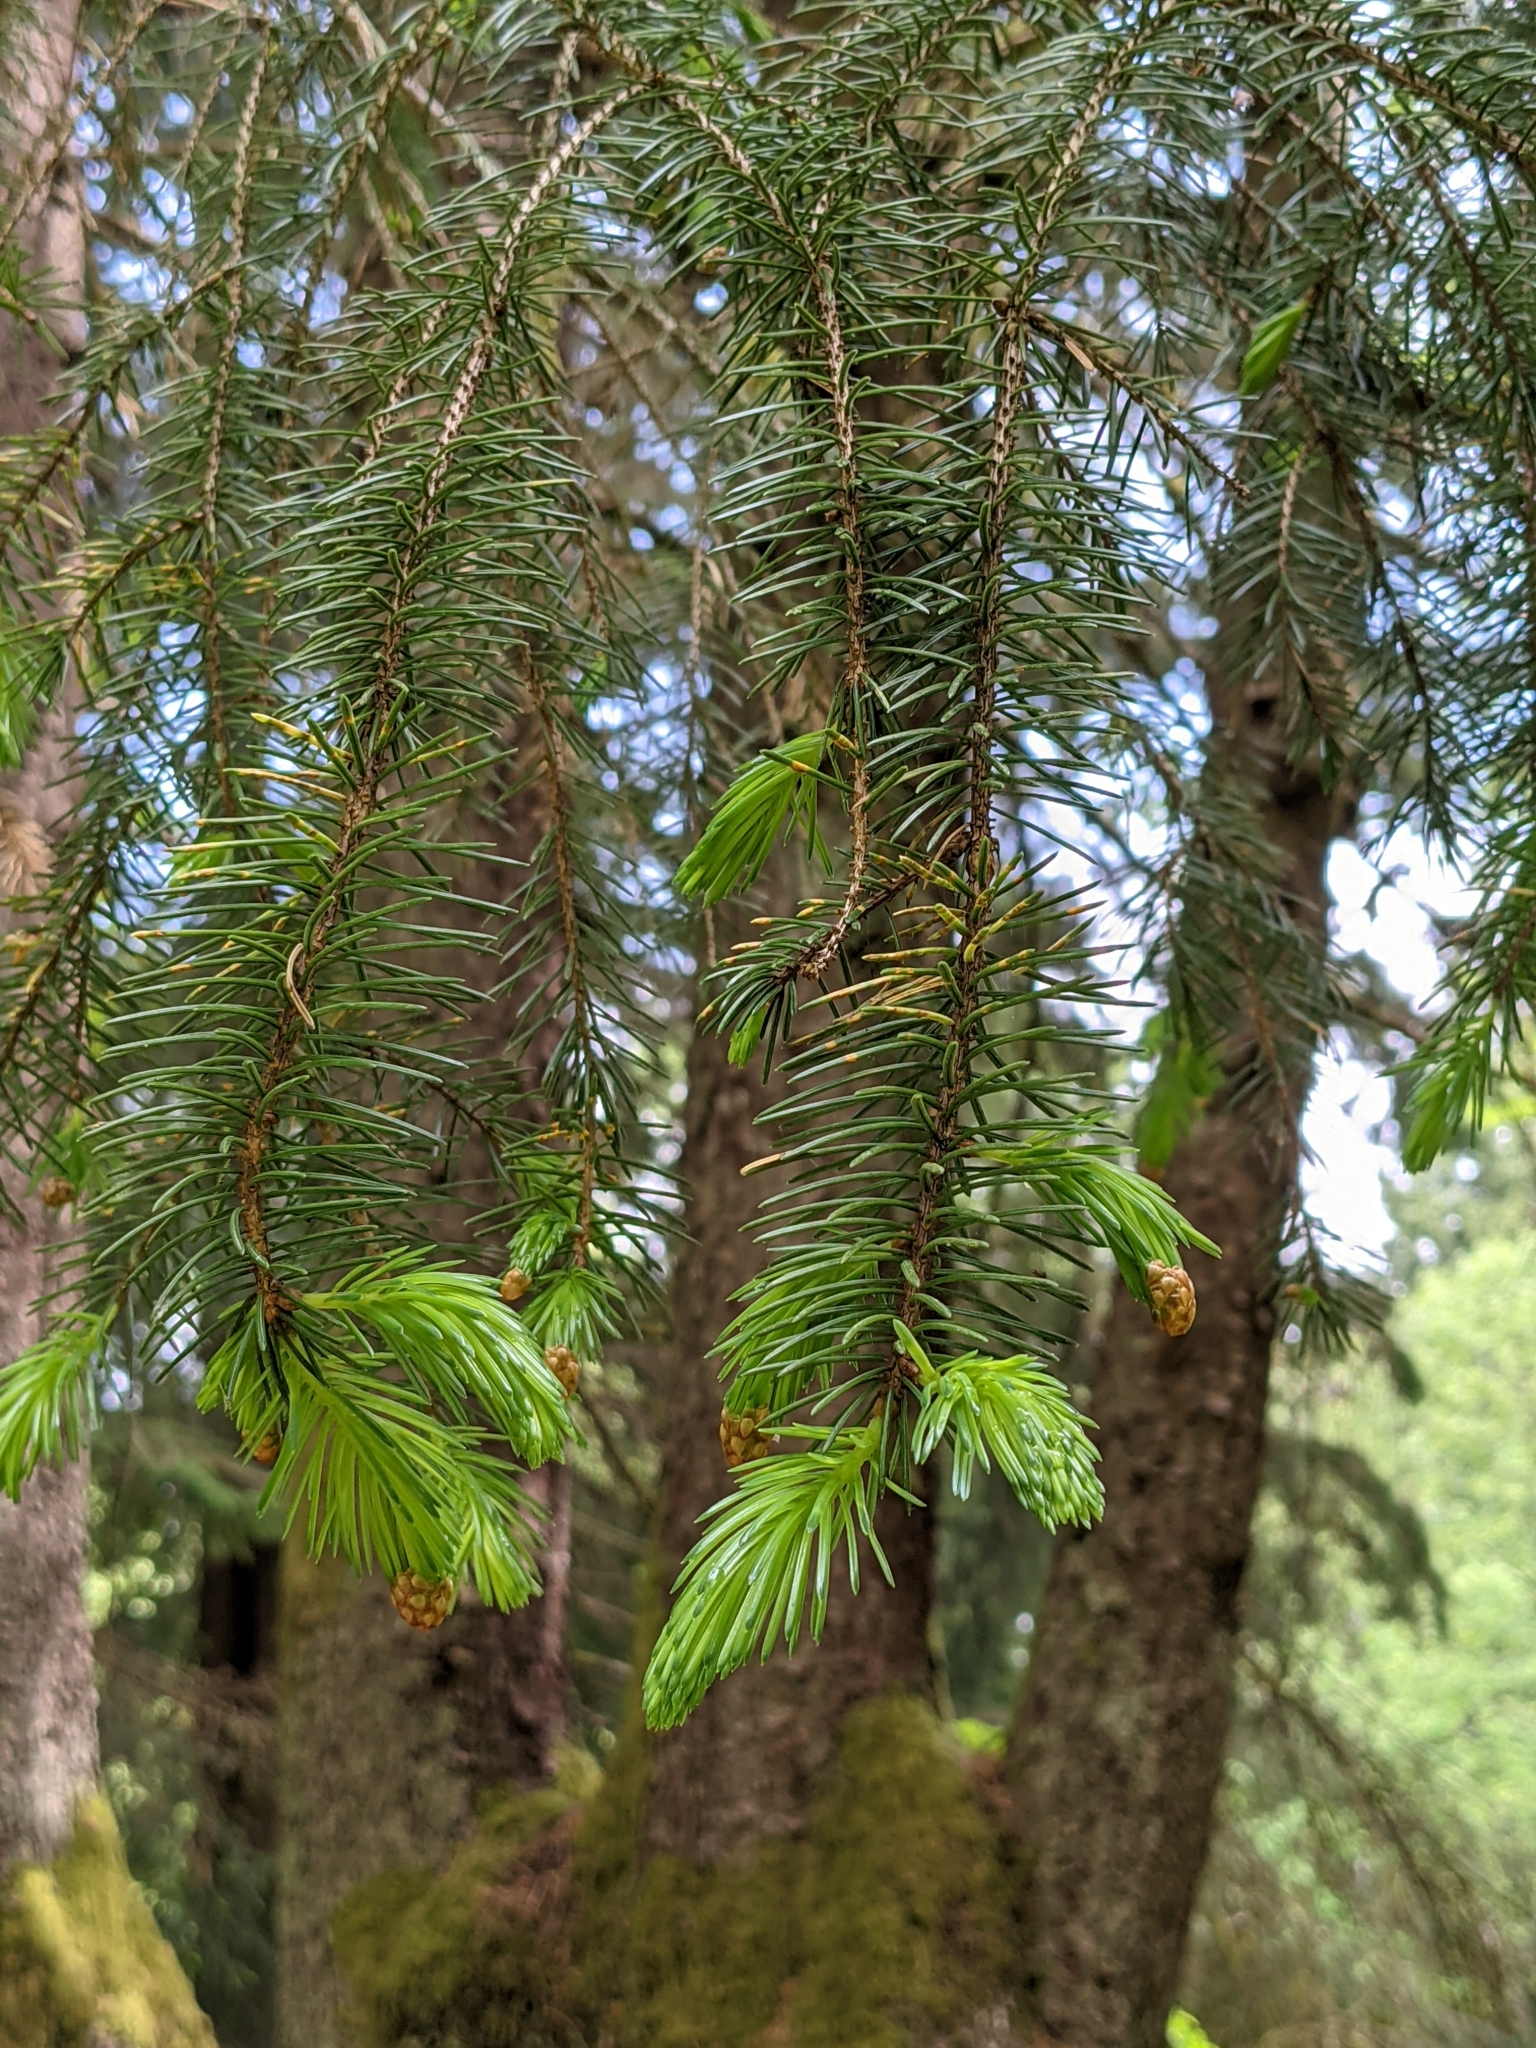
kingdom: Plantae
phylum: Tracheophyta
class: Pinopsida
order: Pinales
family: Pinaceae
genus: Picea
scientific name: Picea sitchensis
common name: Sitka spruce
